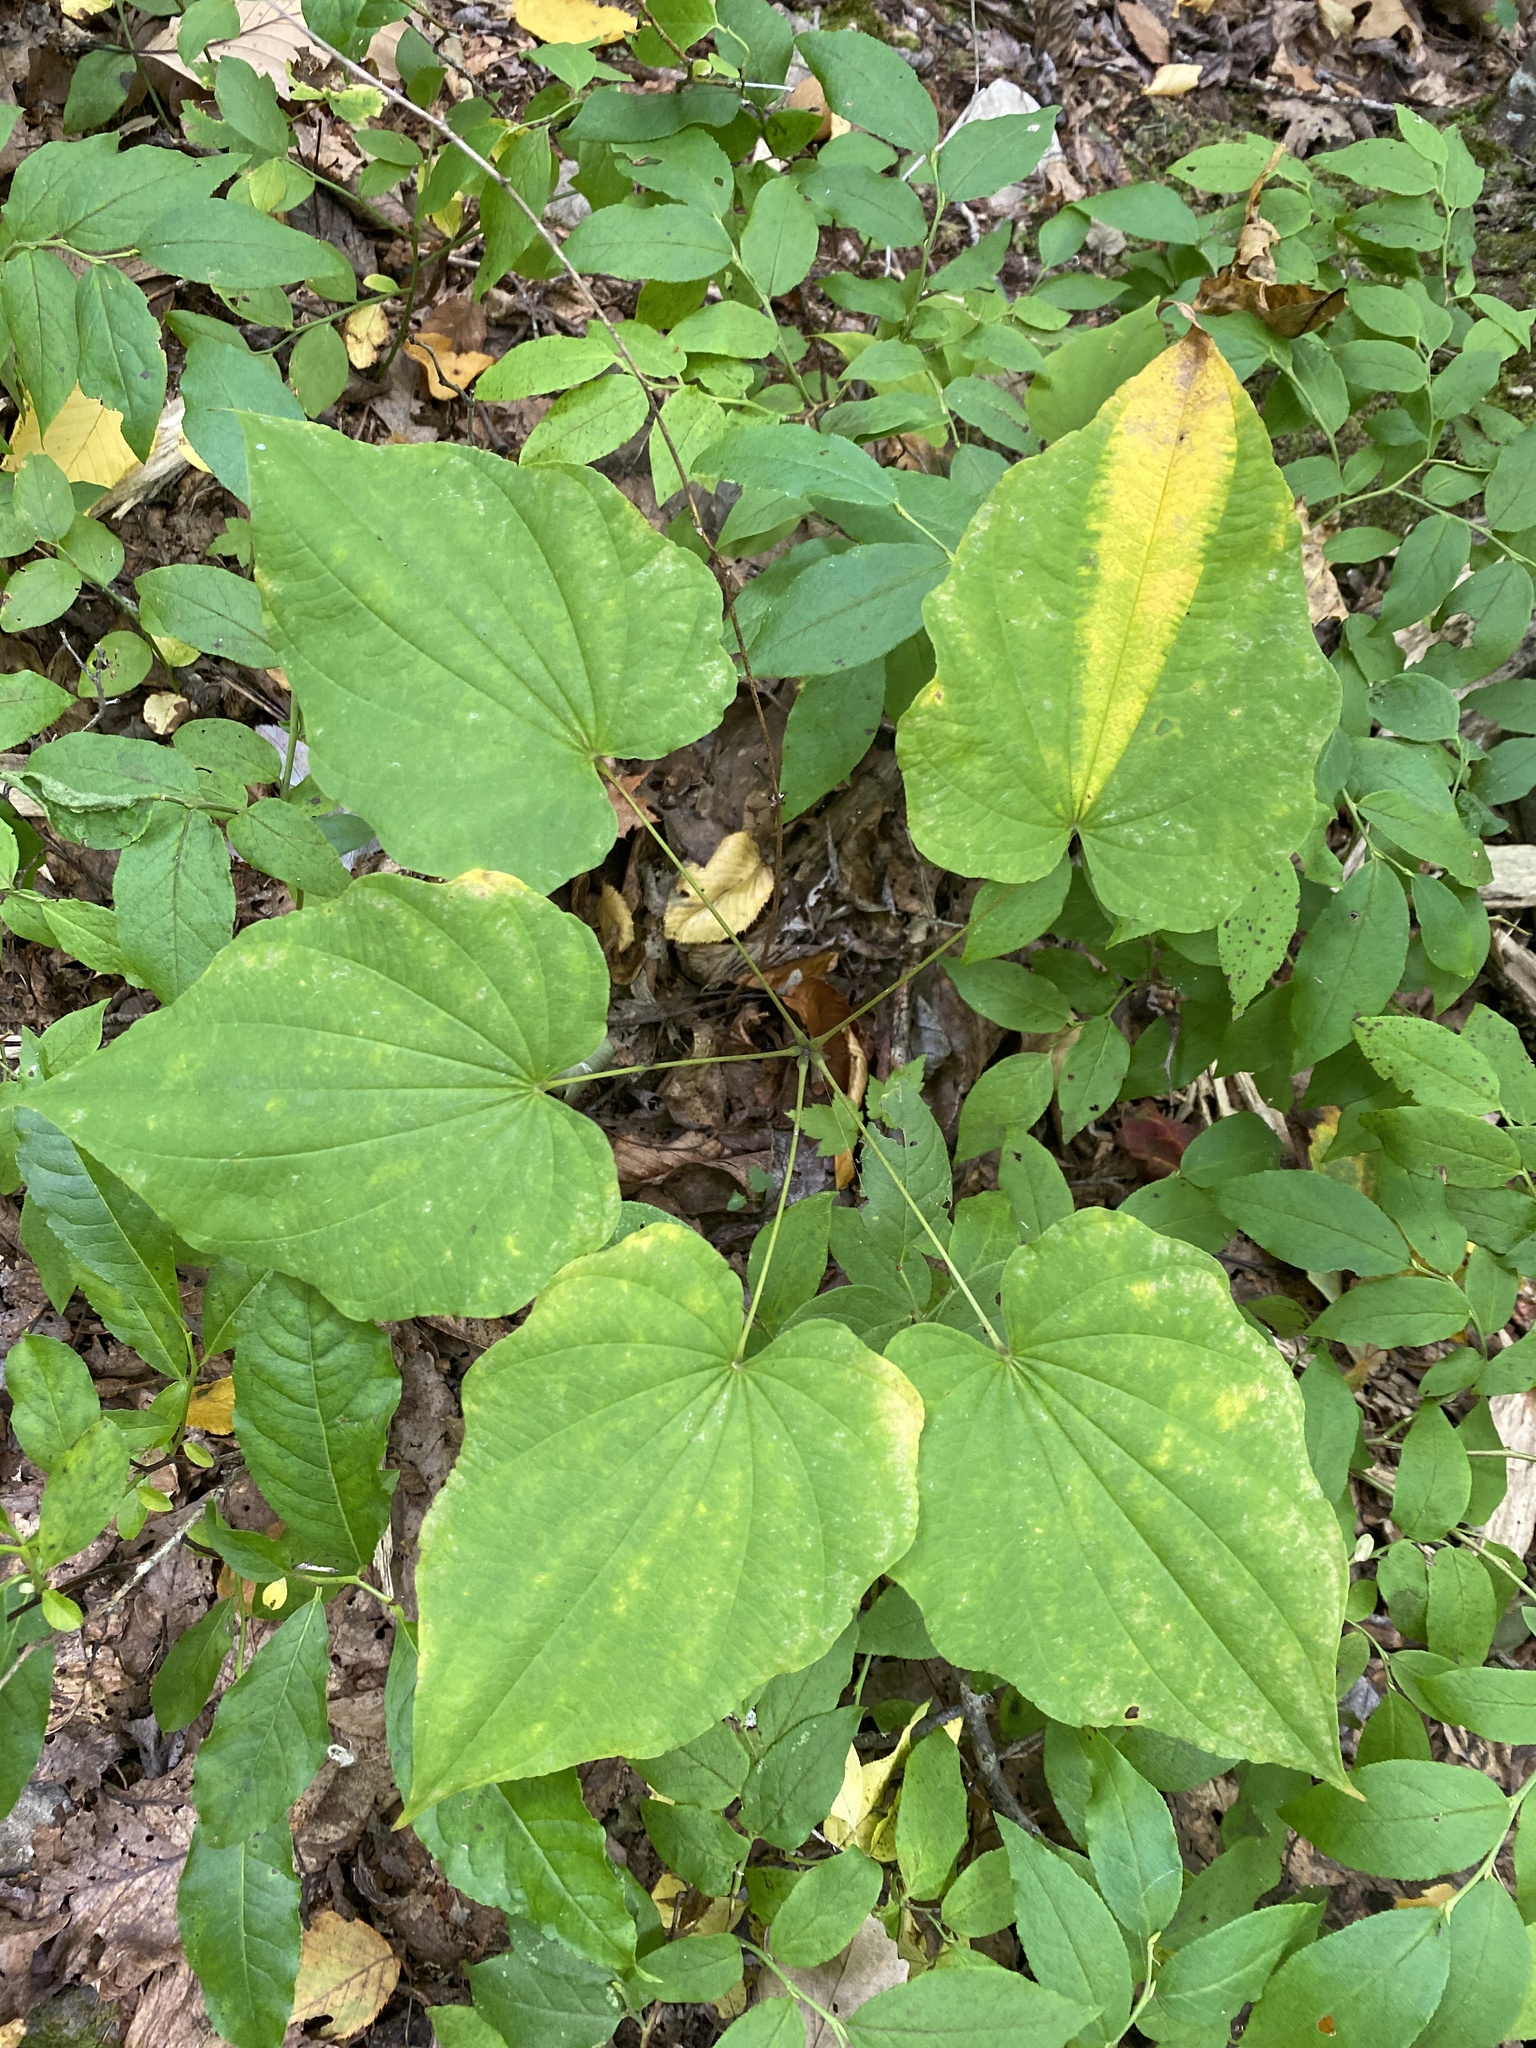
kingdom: Plantae
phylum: Tracheophyta
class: Liliopsida
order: Dioscoreales
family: Dioscoreaceae
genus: Dioscorea
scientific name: Dioscorea villosa
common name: Wild yam
